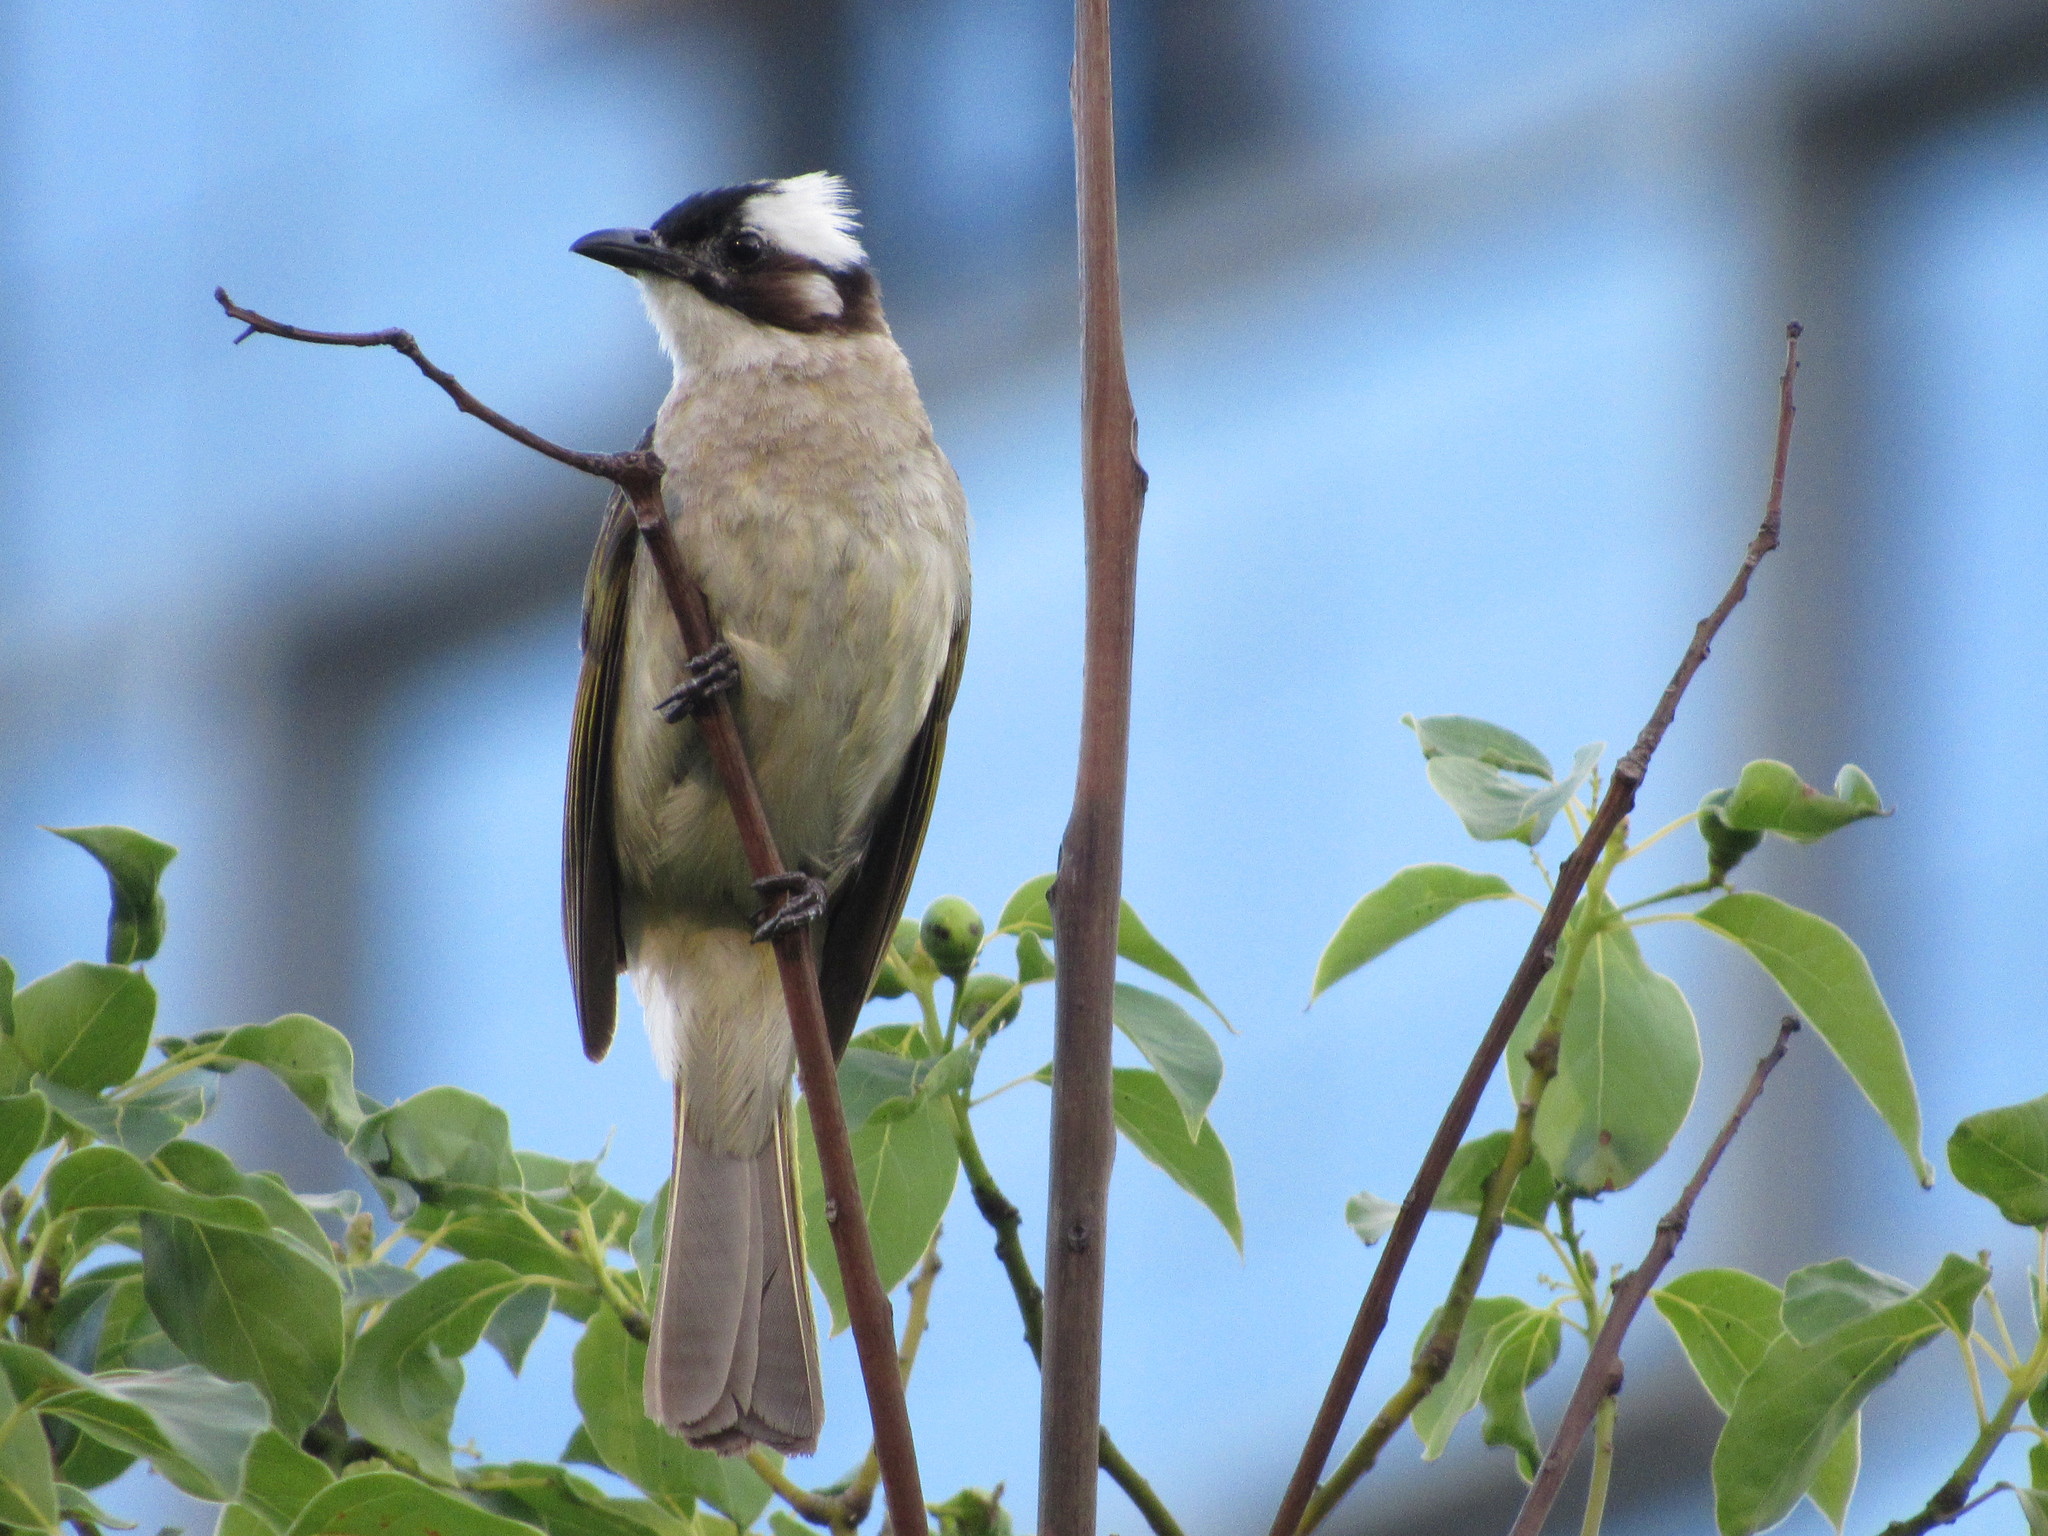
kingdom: Animalia
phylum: Chordata
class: Aves
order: Passeriformes
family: Pycnonotidae
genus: Pycnonotus
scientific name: Pycnonotus sinensis
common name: Light-vented bulbul
